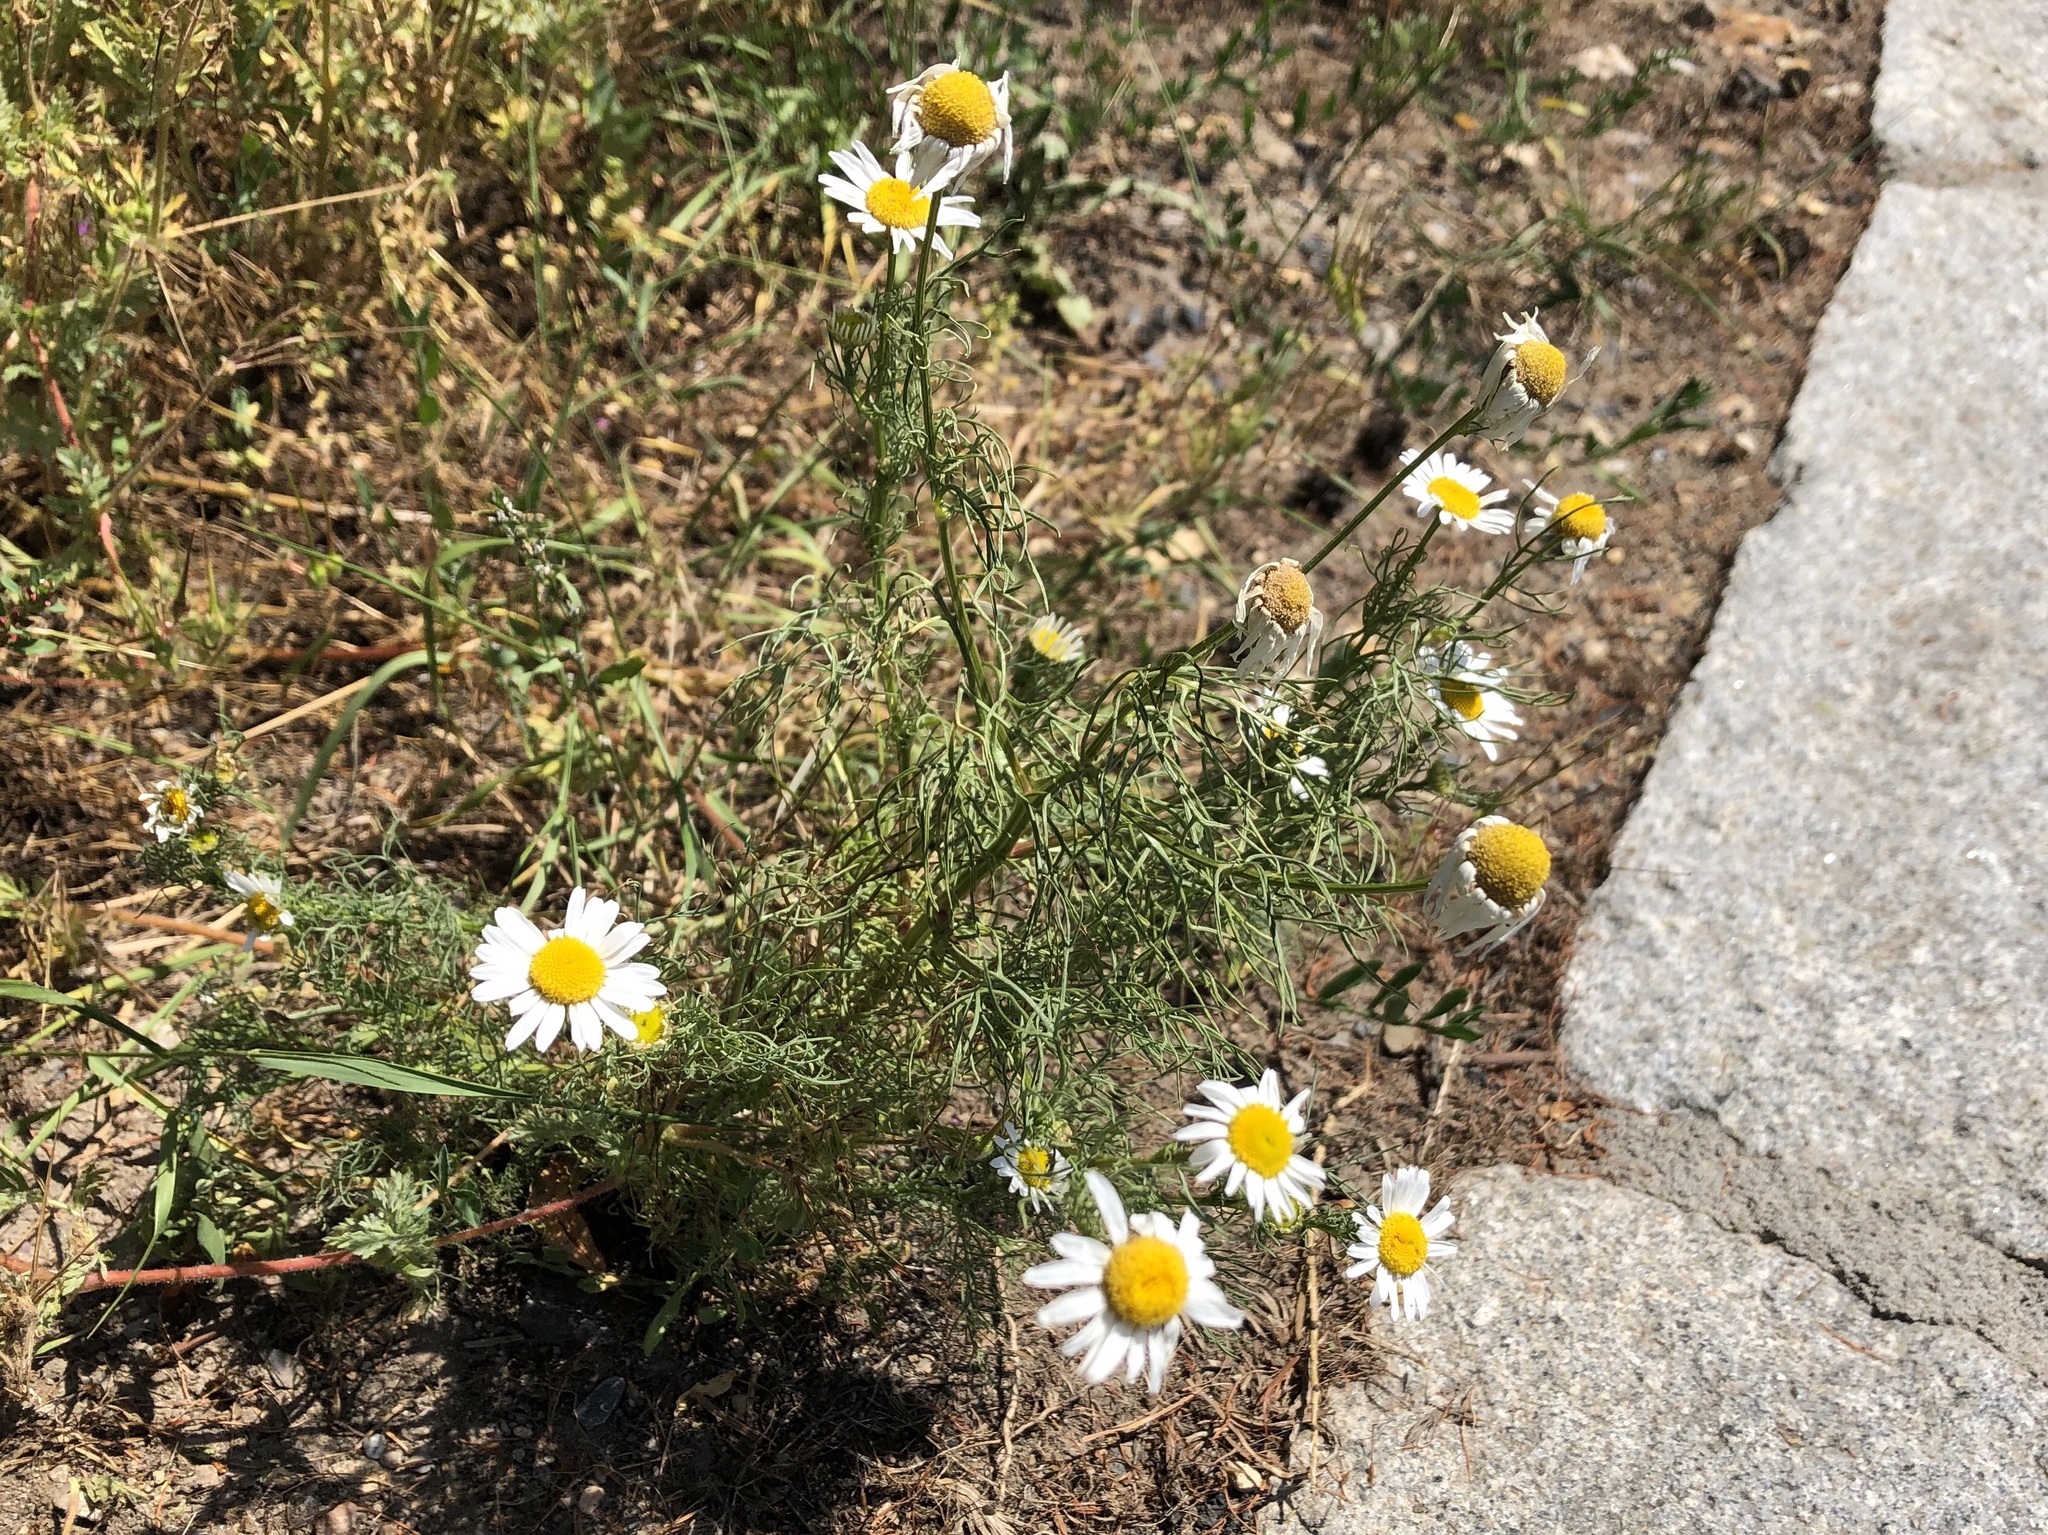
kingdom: Plantae
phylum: Tracheophyta
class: Magnoliopsida
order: Asterales
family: Asteraceae
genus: Tripleurospermum
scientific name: Tripleurospermum inodorum
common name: Scentless mayweed
